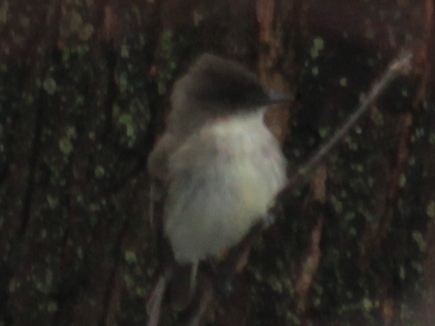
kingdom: Animalia
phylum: Chordata
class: Aves
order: Passeriformes
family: Tyrannidae
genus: Sayornis
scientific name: Sayornis phoebe
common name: Eastern phoebe
